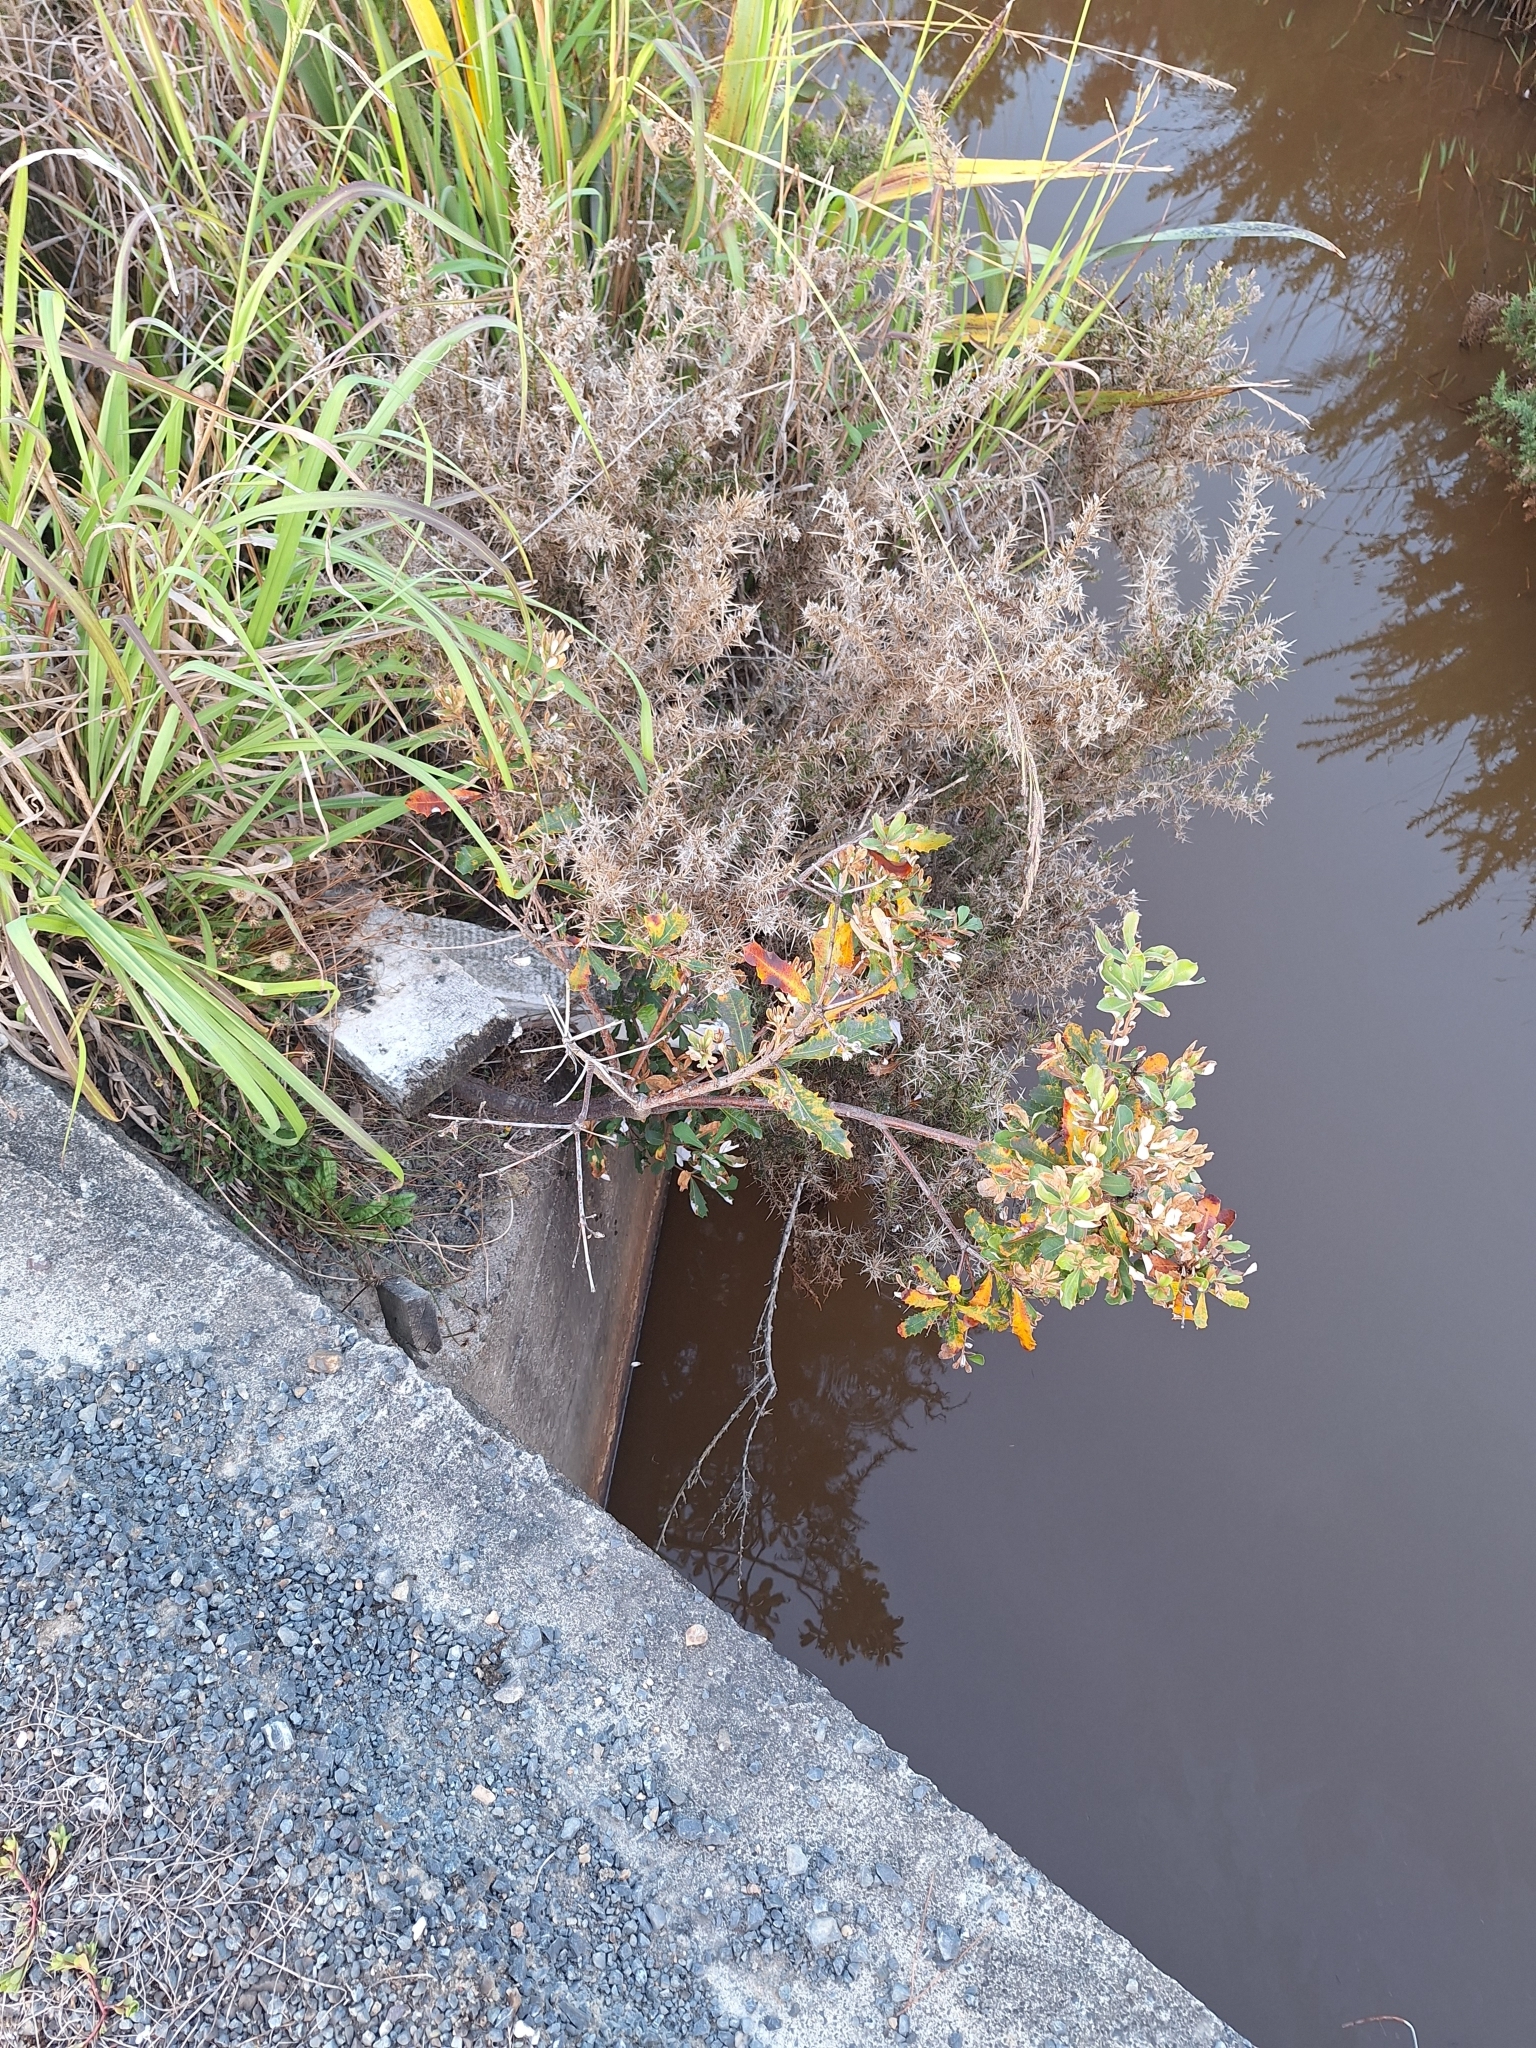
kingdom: Plantae
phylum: Tracheophyta
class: Magnoliopsida
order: Proteales
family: Proteaceae
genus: Banksia
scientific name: Banksia integrifolia
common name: White-honeysuckle
